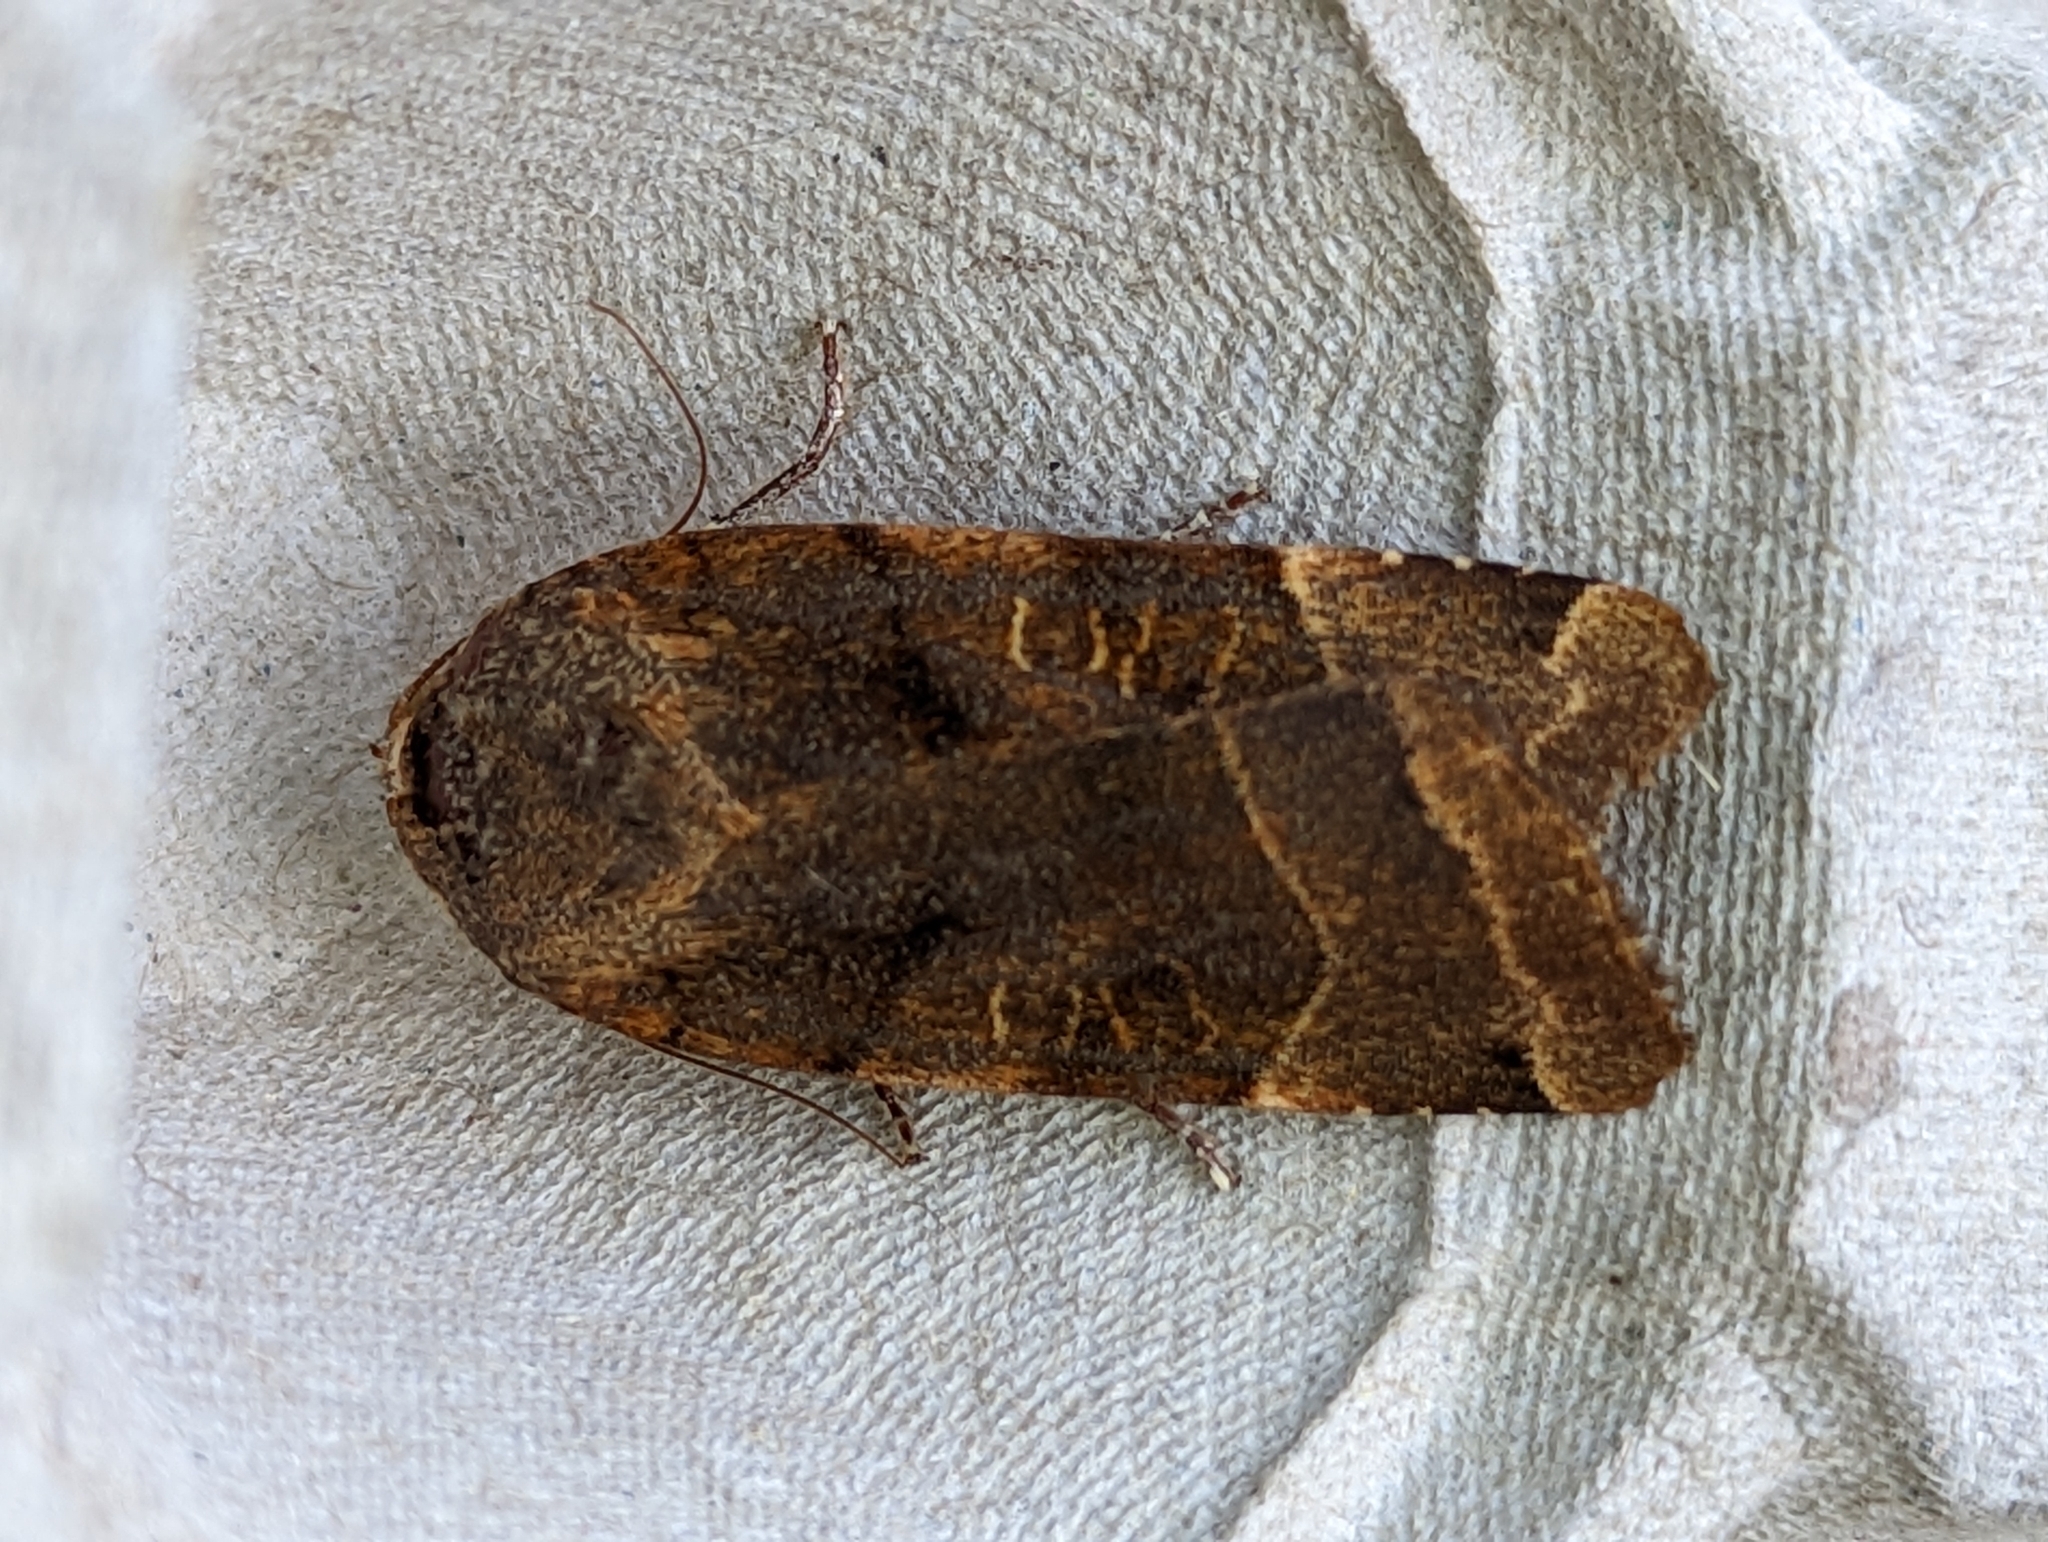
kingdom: Animalia
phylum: Arthropoda
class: Insecta
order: Lepidoptera
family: Noctuidae
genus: Noctua
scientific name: Noctua fimbriata
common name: Broad-bordered yellow underwing
